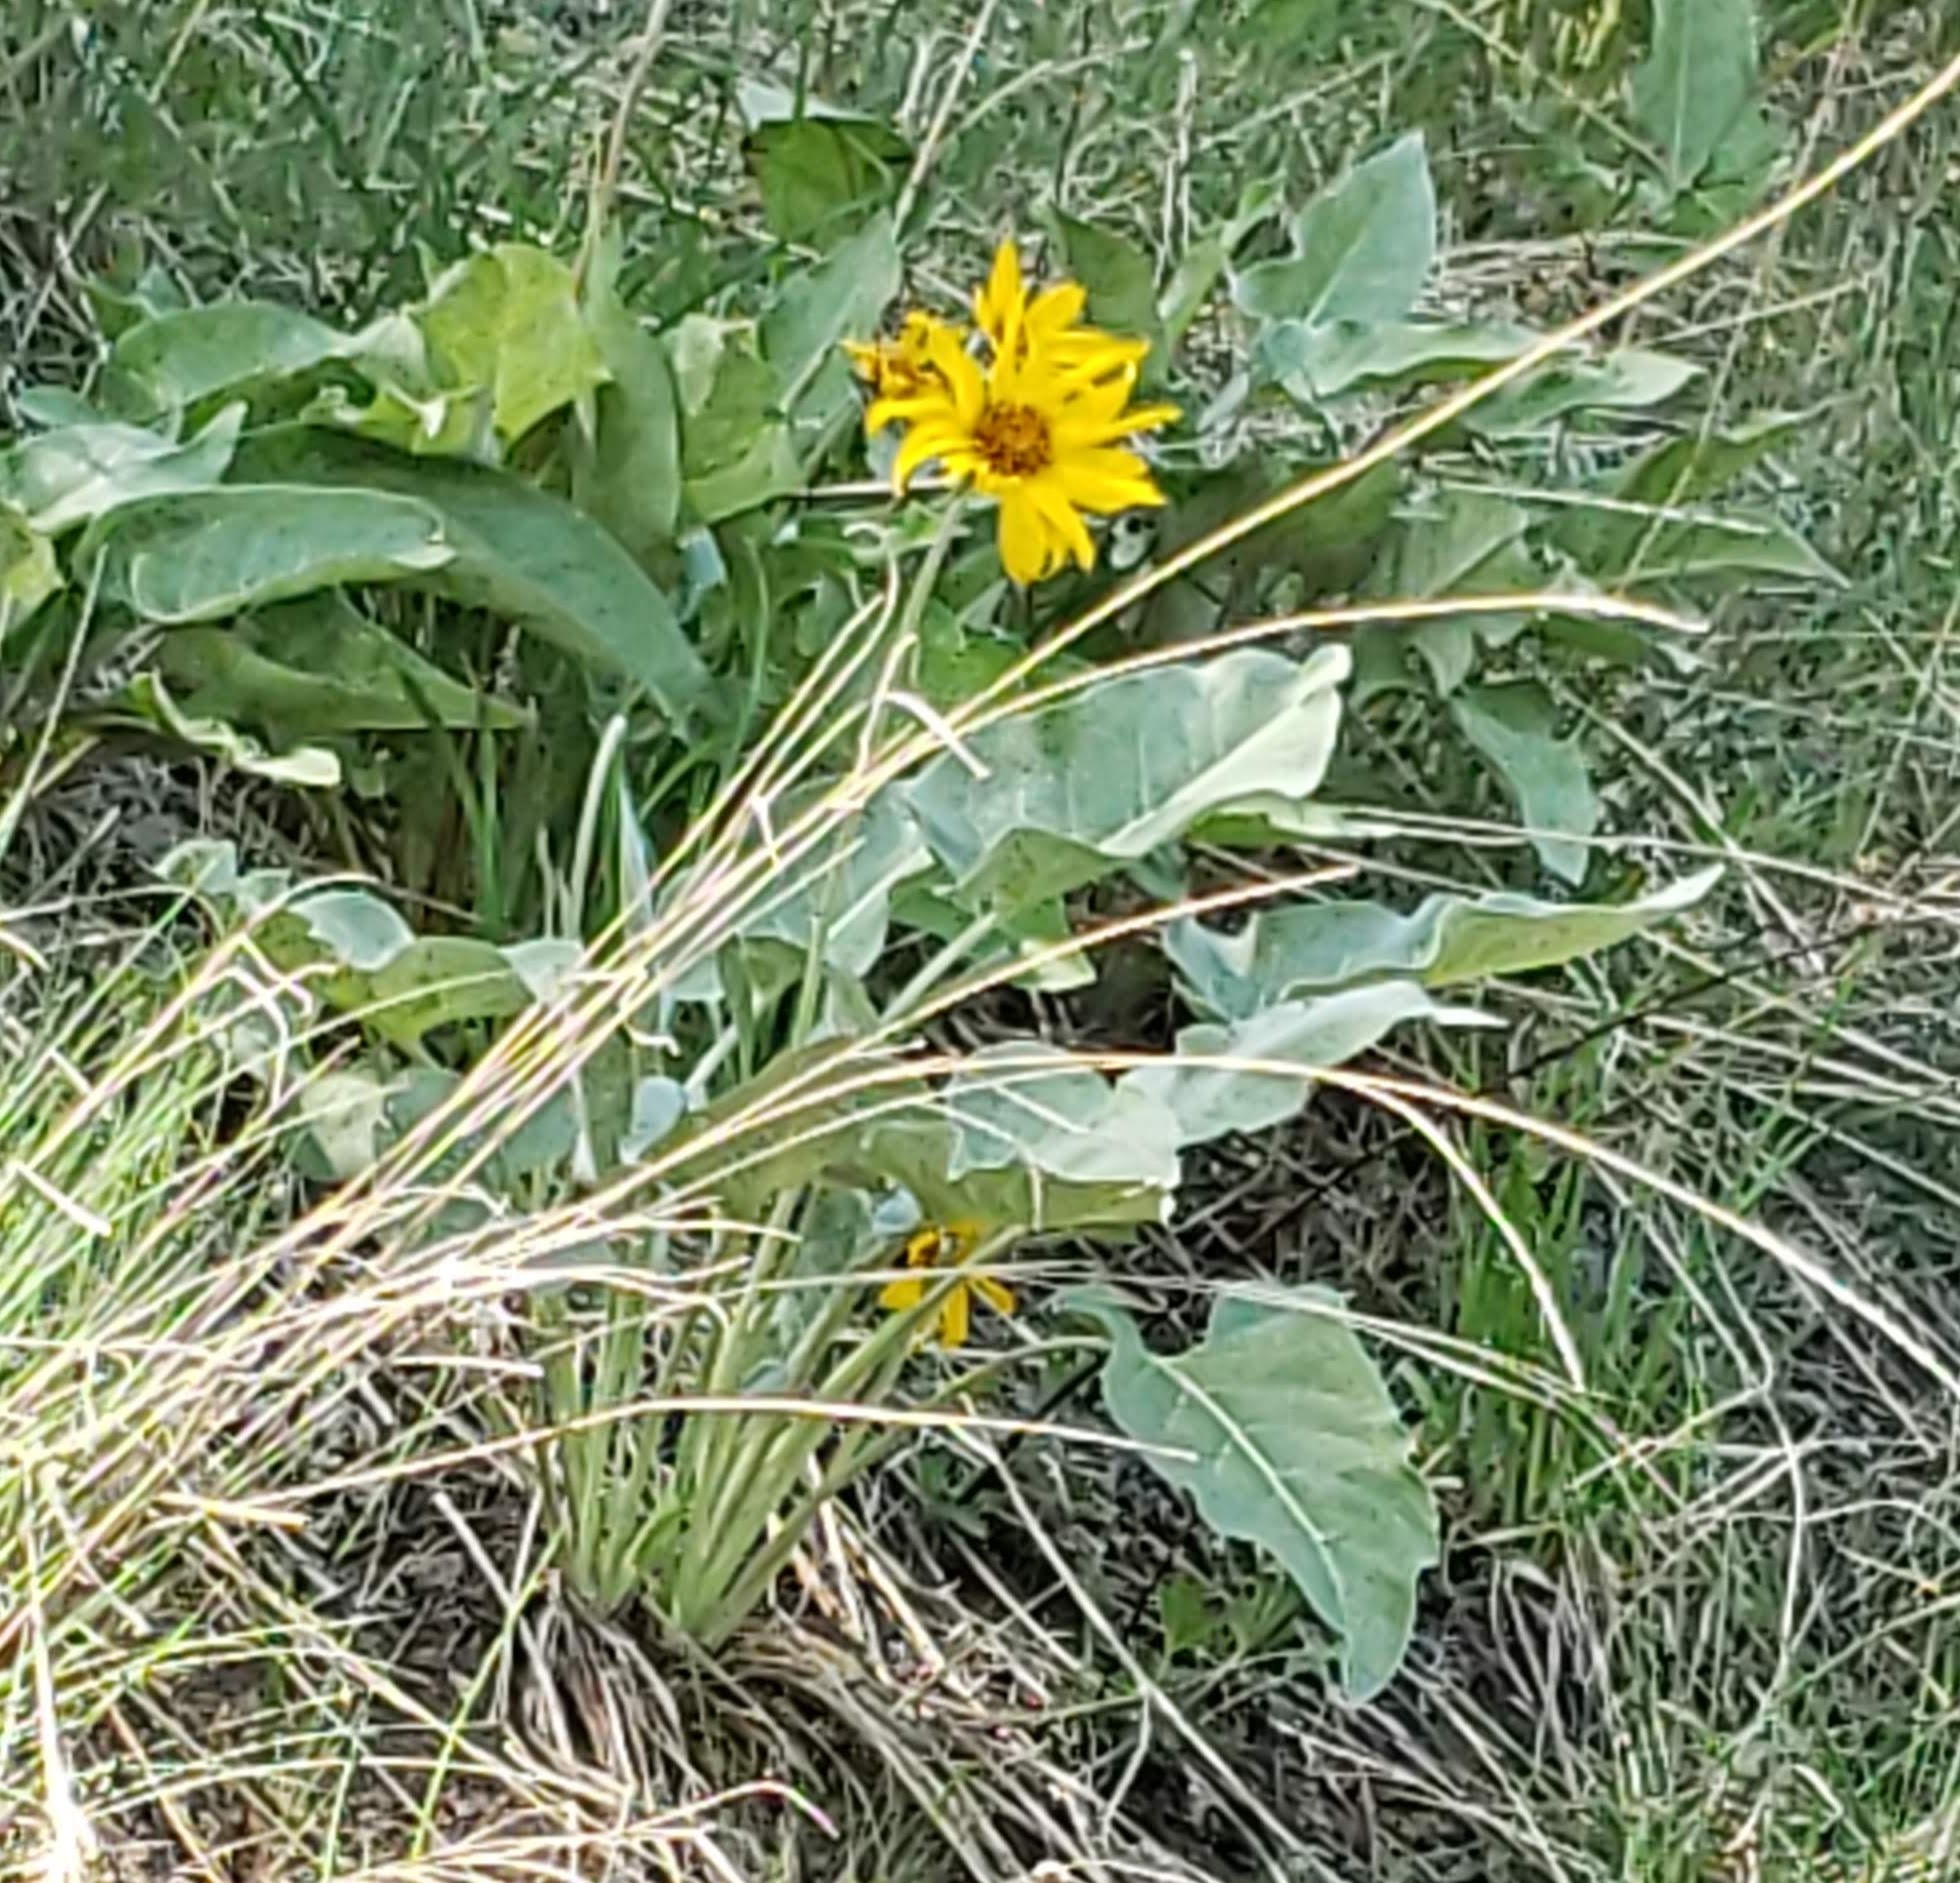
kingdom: Plantae
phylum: Tracheophyta
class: Magnoliopsida
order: Asterales
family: Asteraceae
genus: Wyethia
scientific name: Wyethia sagittata
